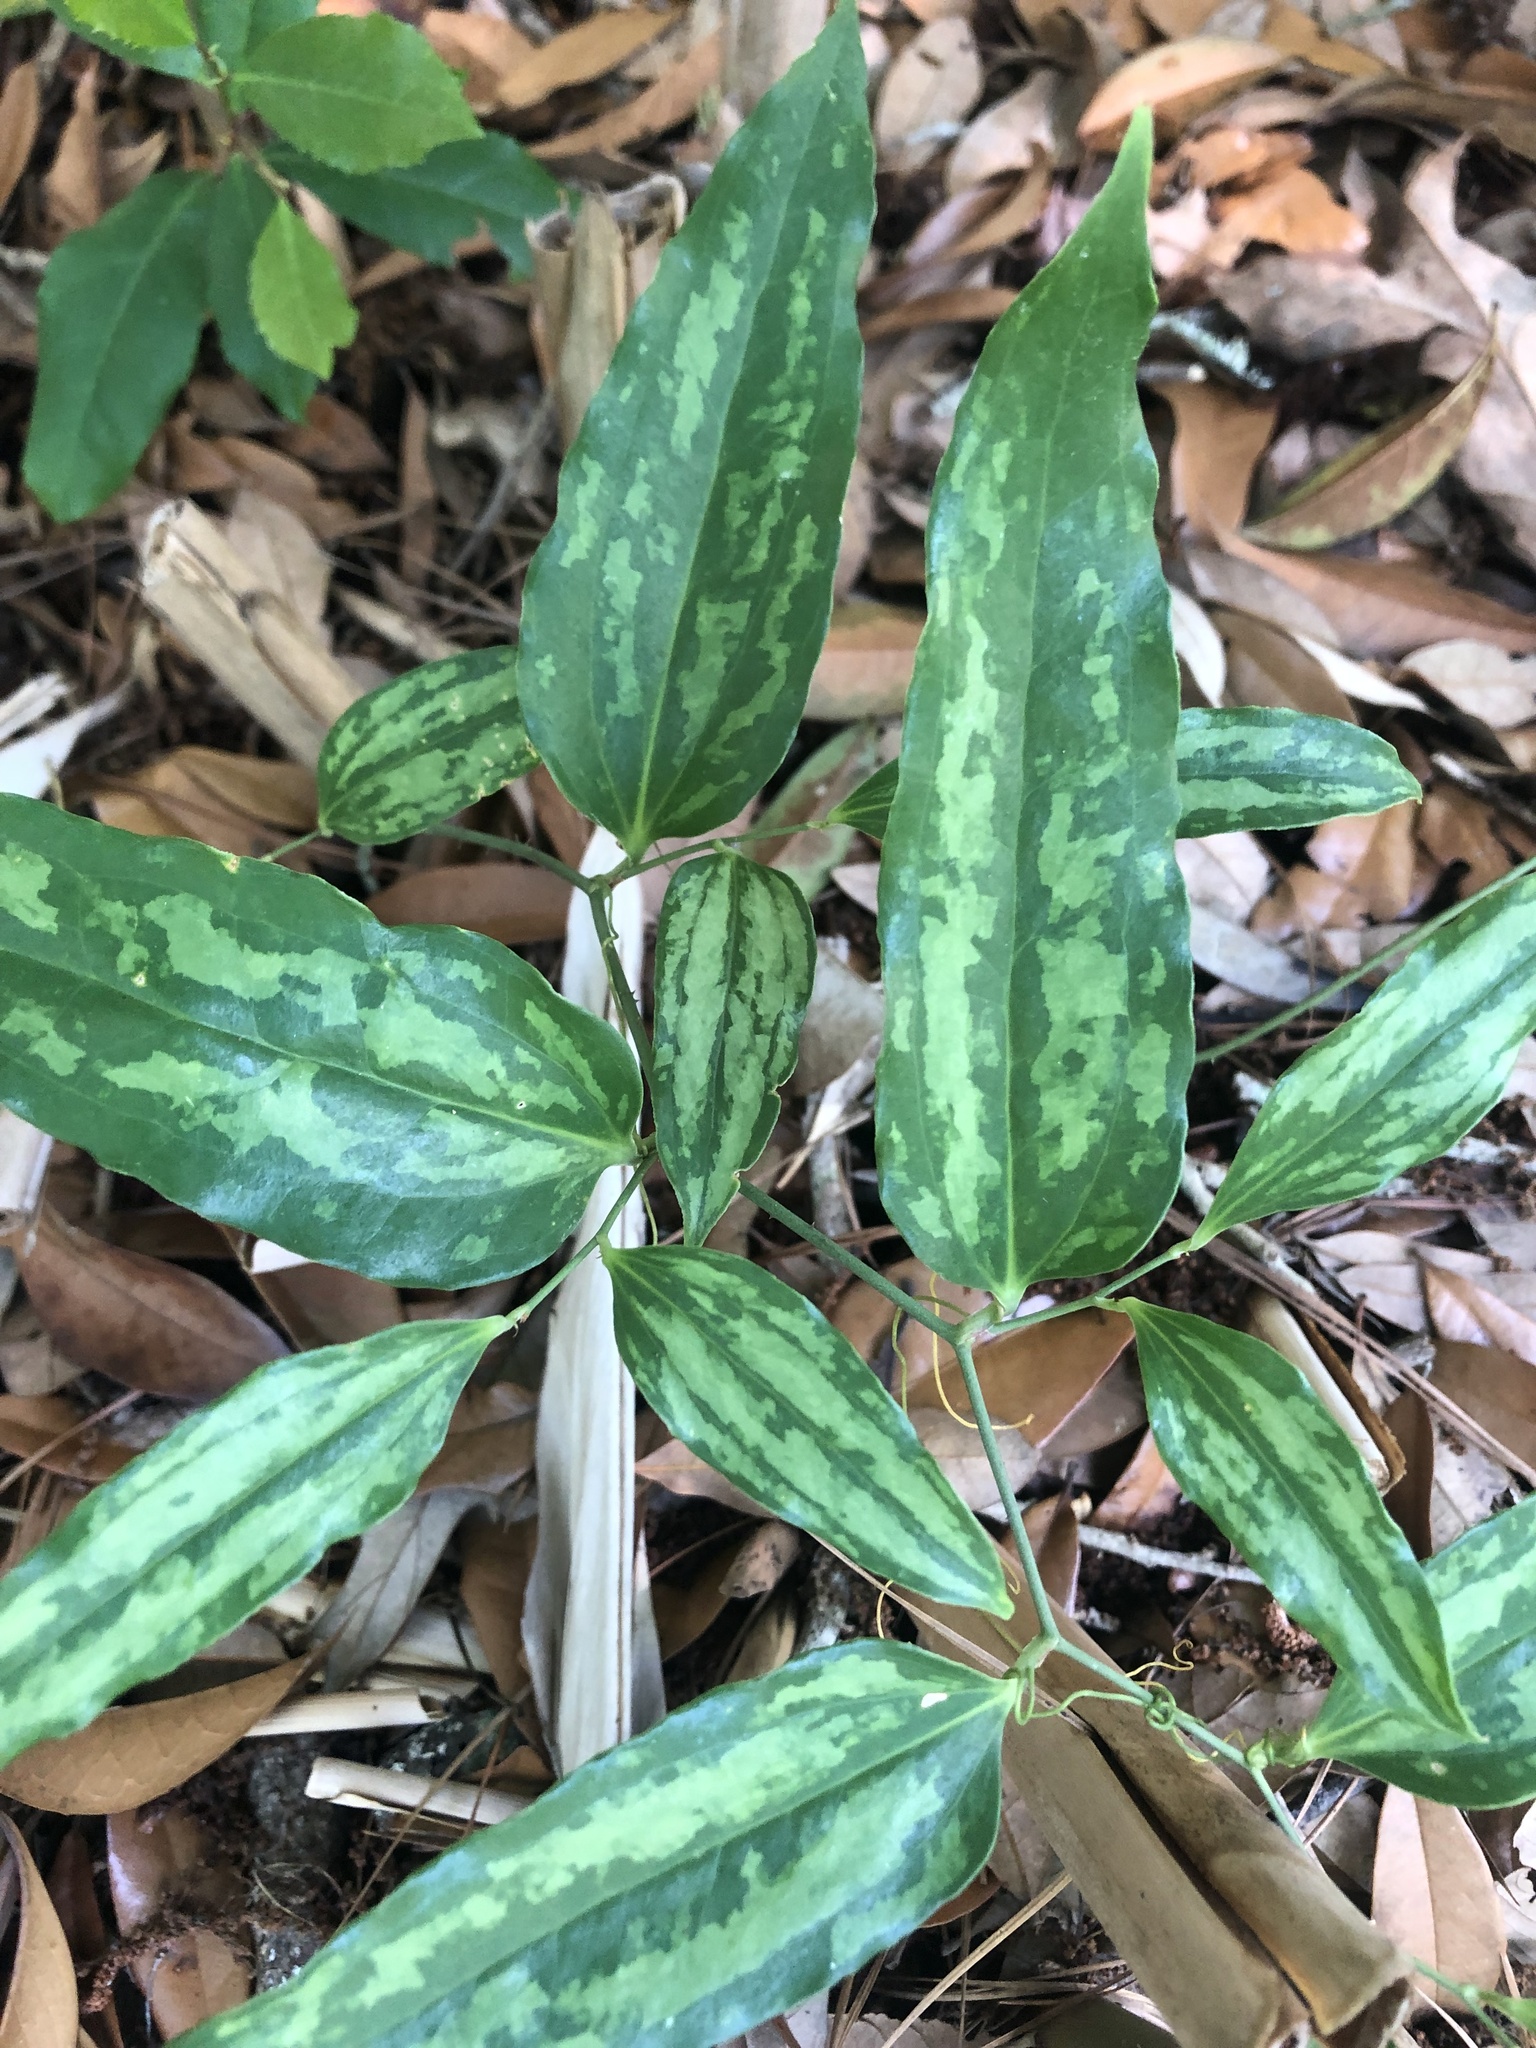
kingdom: Plantae
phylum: Tracheophyta
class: Liliopsida
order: Liliales
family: Smilacaceae
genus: Smilax
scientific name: Smilax maritima
